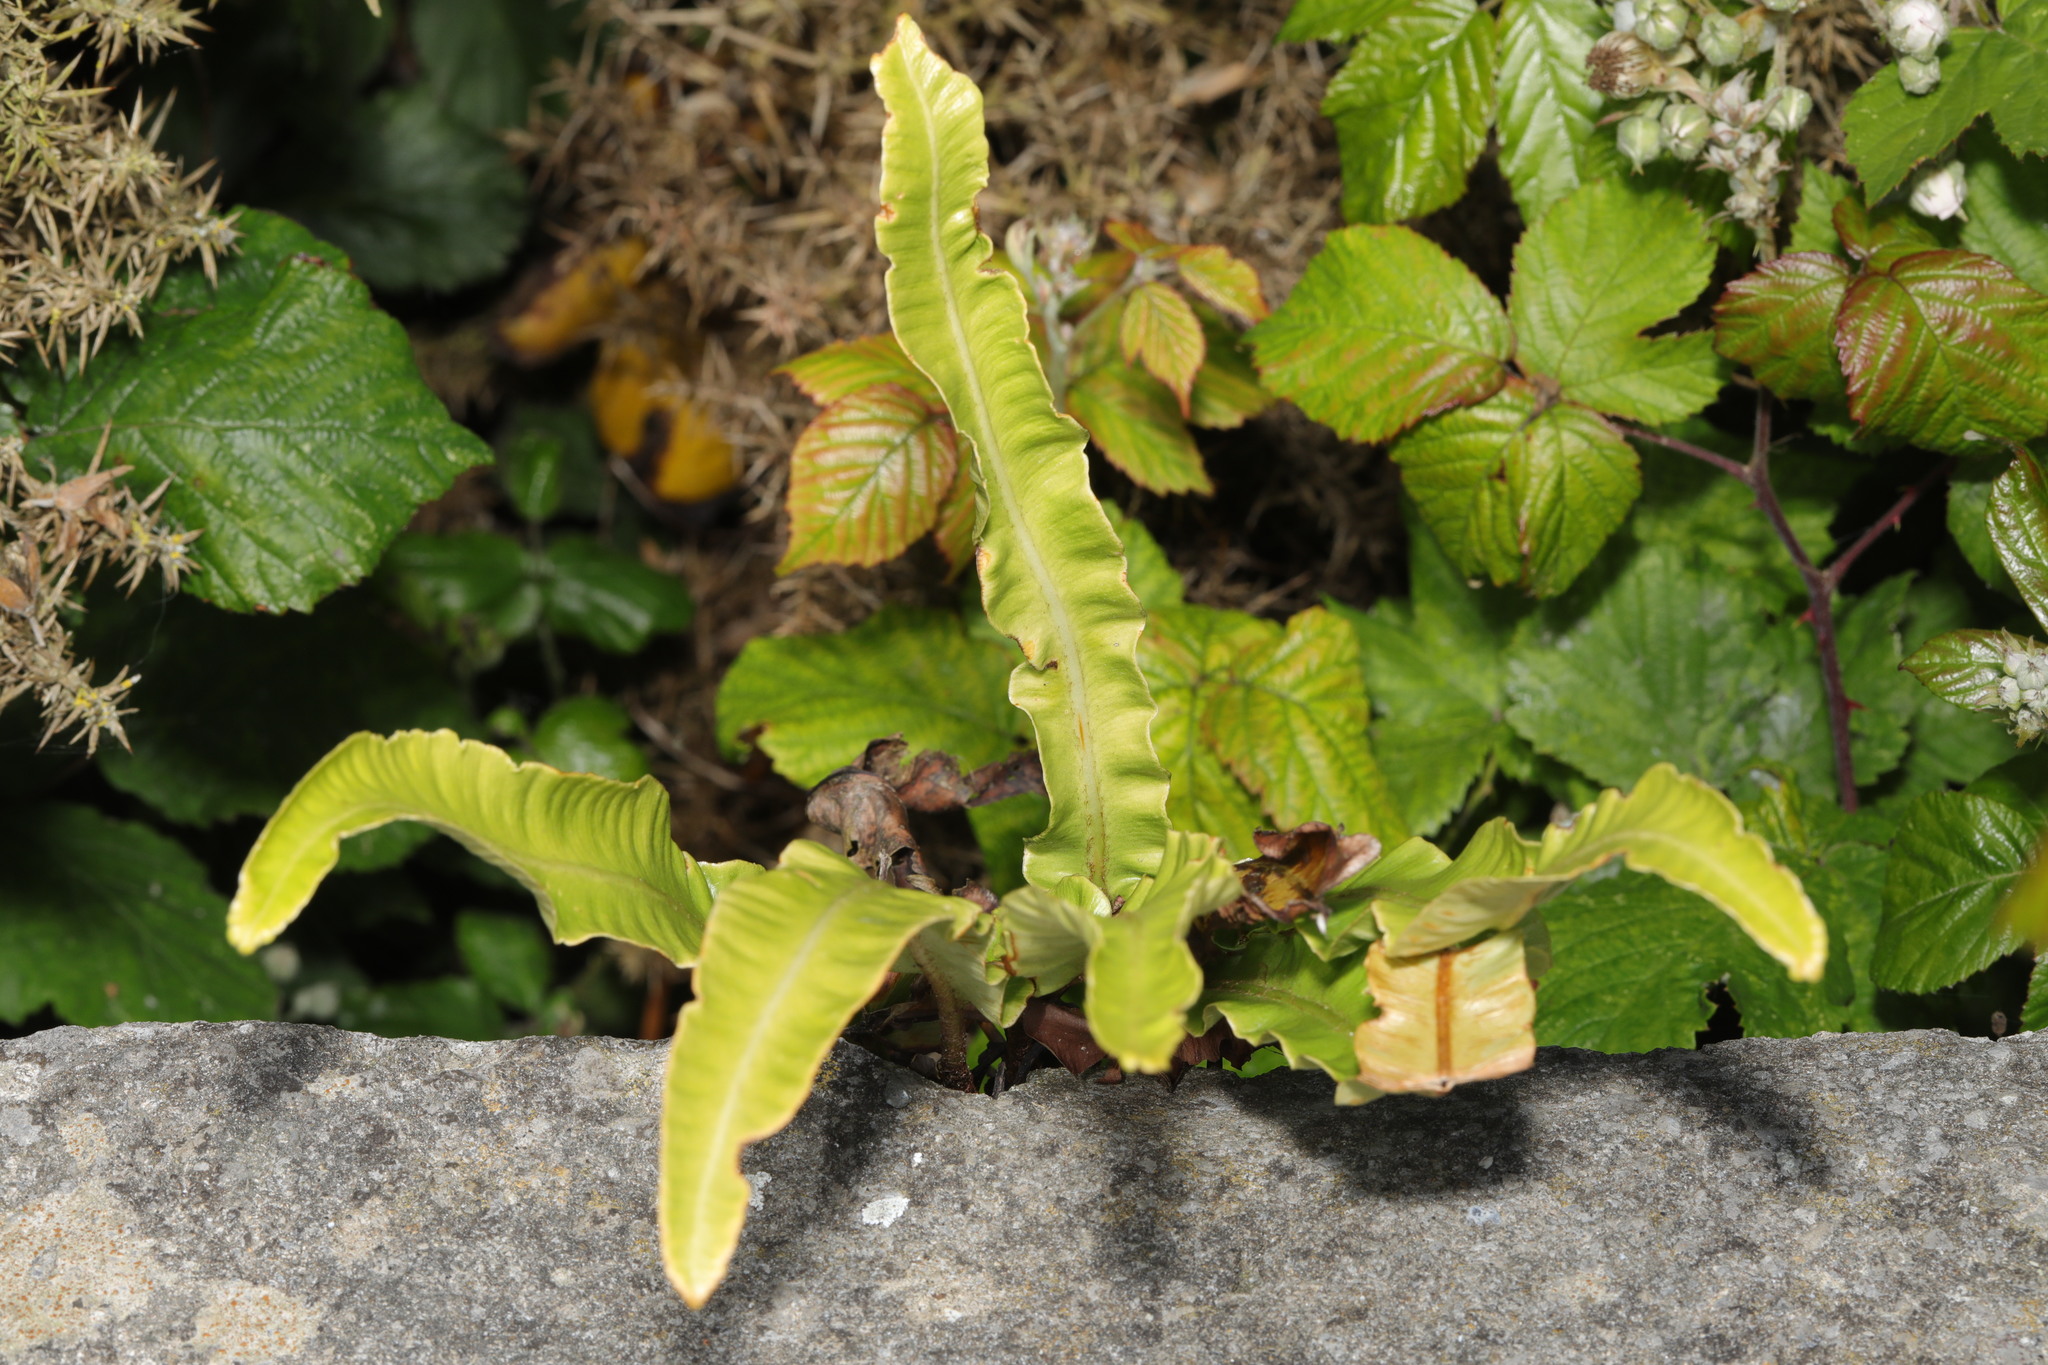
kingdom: Plantae
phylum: Tracheophyta
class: Polypodiopsida
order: Polypodiales
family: Aspleniaceae
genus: Asplenium
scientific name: Asplenium scolopendrium
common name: Hart's-tongue fern
